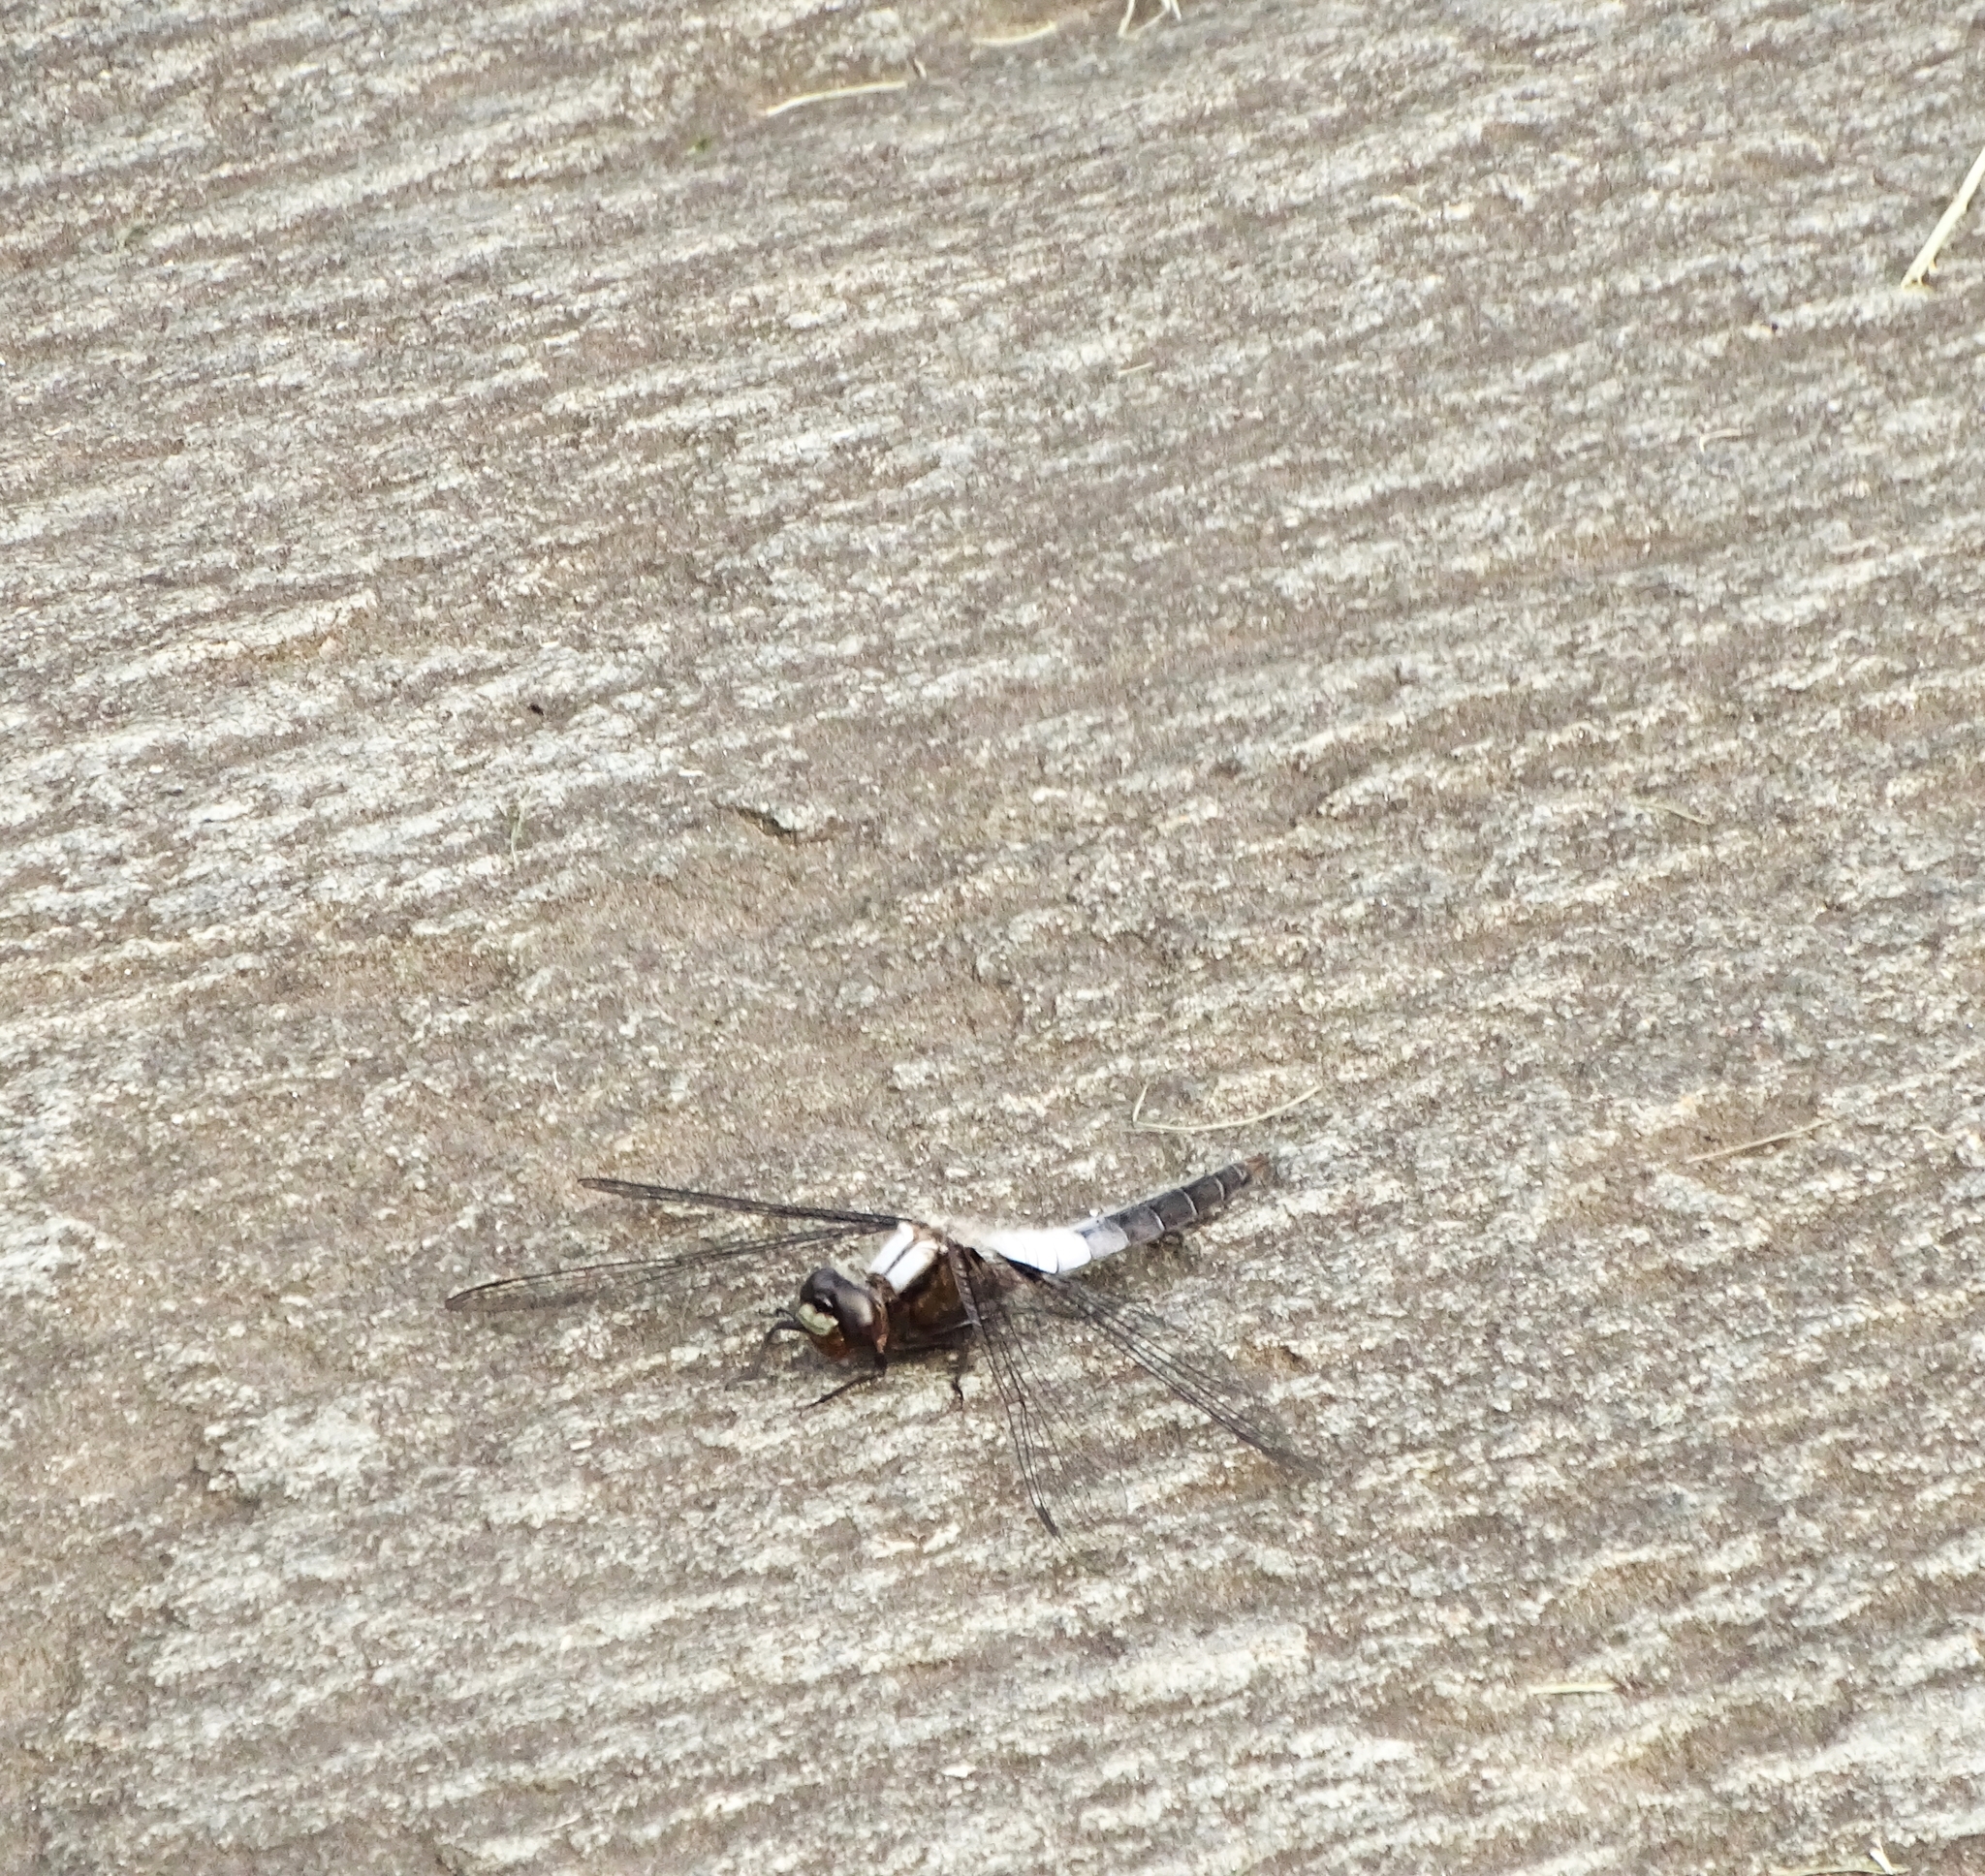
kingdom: Animalia
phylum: Arthropoda
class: Insecta
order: Odonata
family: Libellulidae
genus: Ladona
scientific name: Ladona julia
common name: Chalk-fronted corporal
